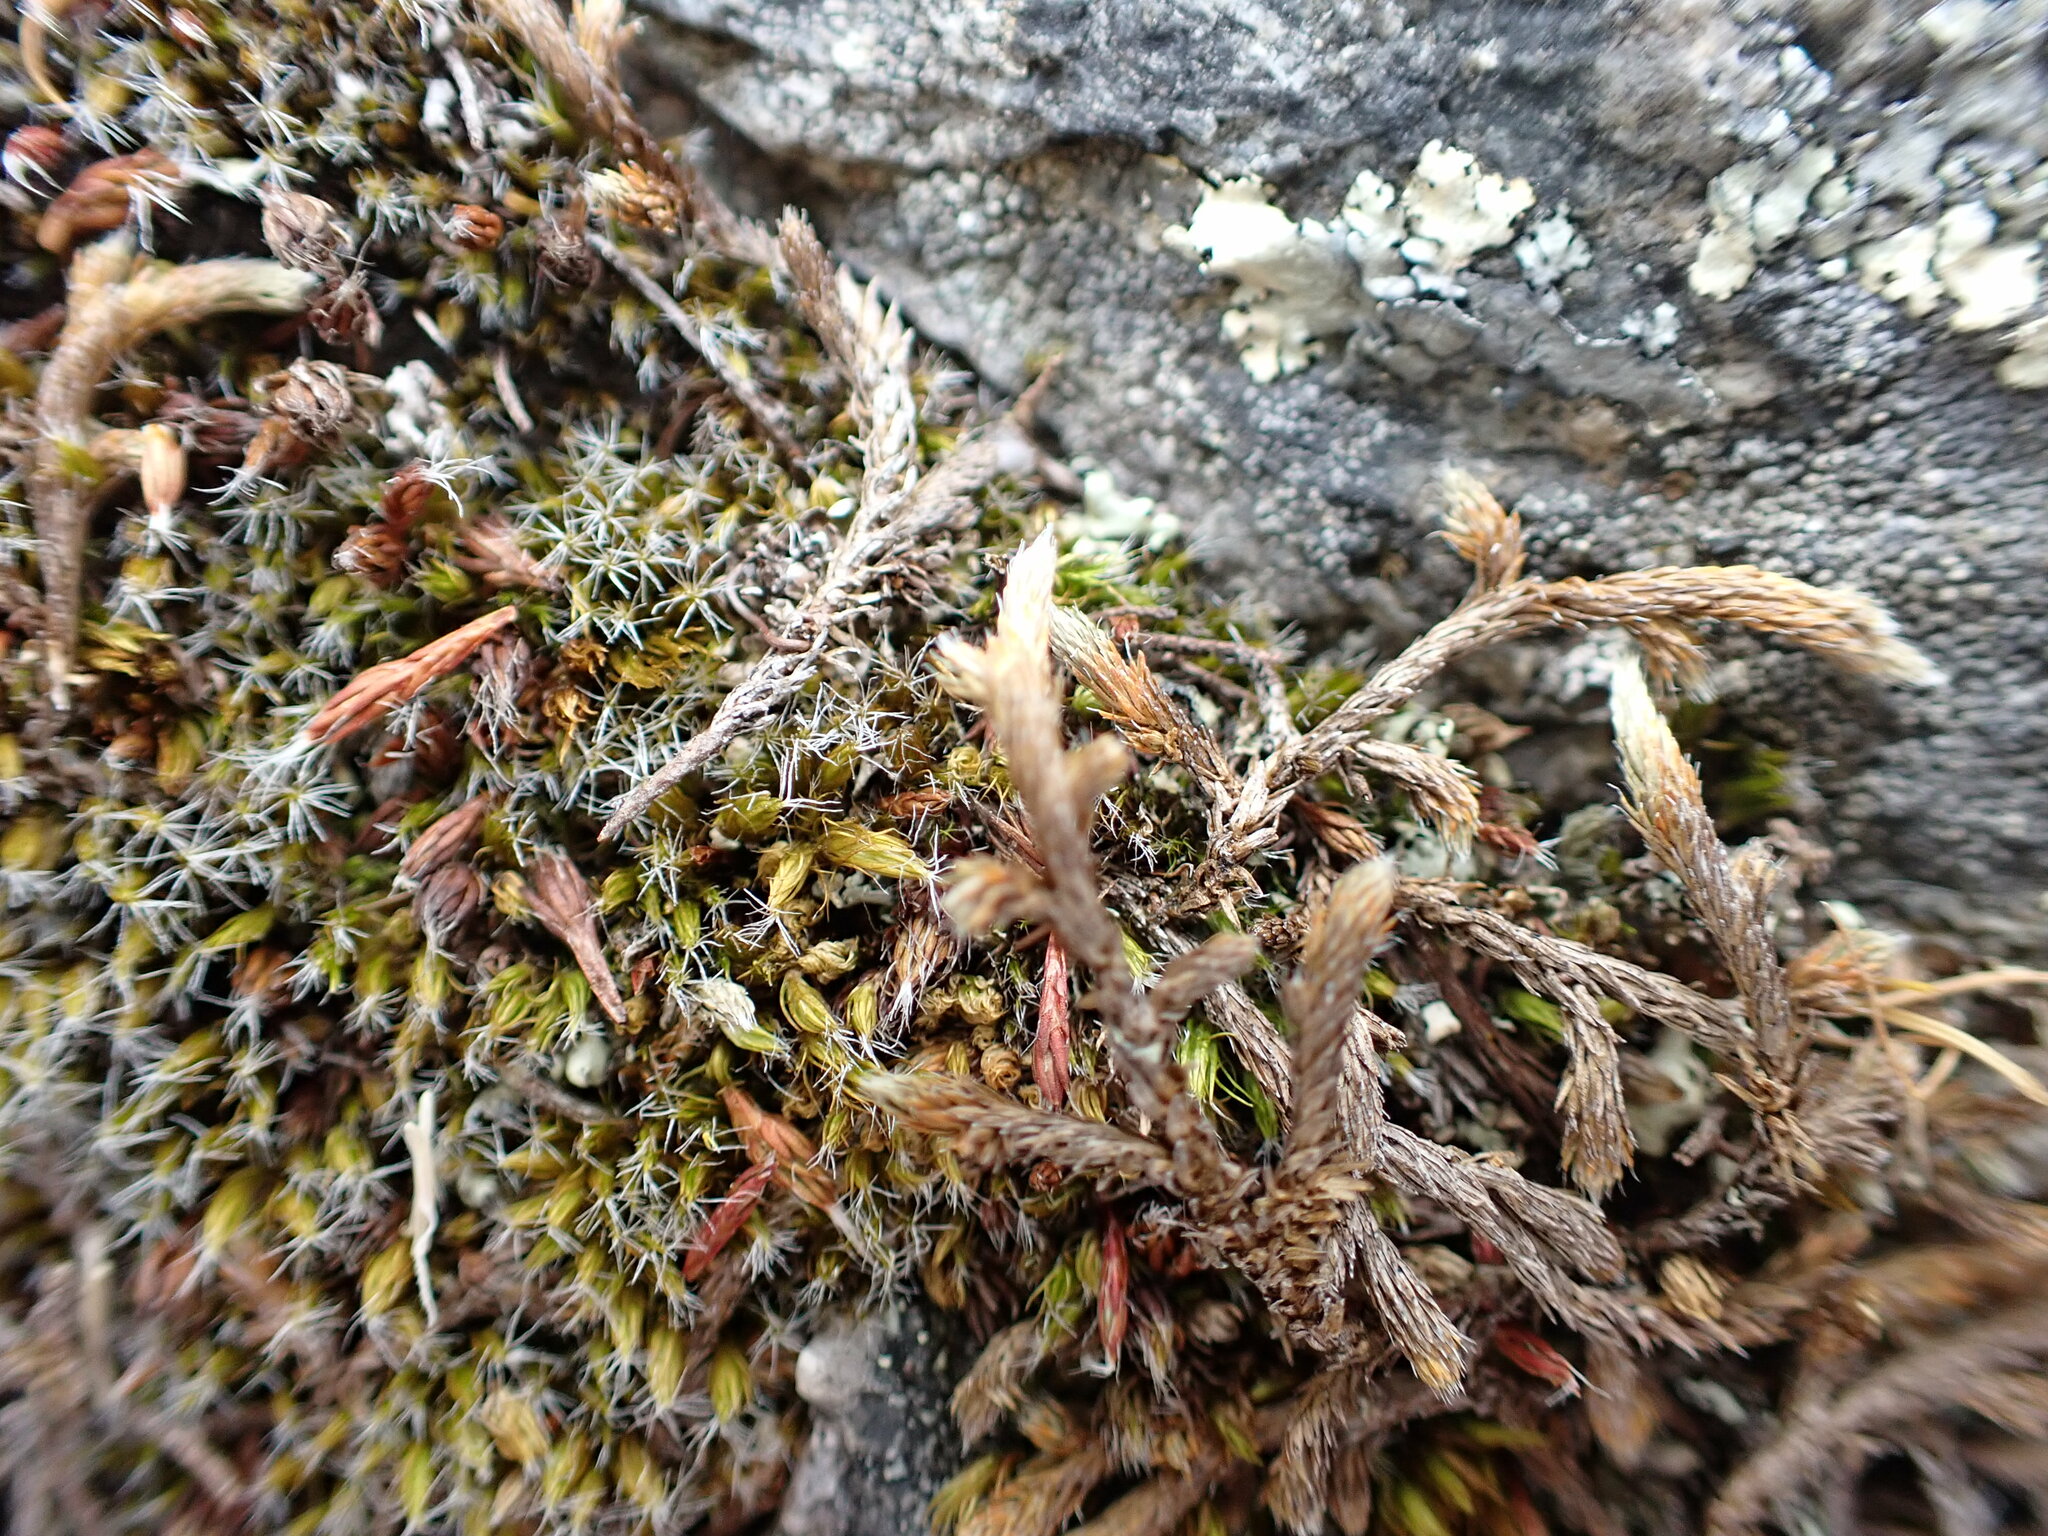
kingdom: Plantae
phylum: Tracheophyta
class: Lycopodiopsida
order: Selaginellales
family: Selaginellaceae
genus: Selaginella
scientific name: Selaginella wallacei
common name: Wallace's selaginella
